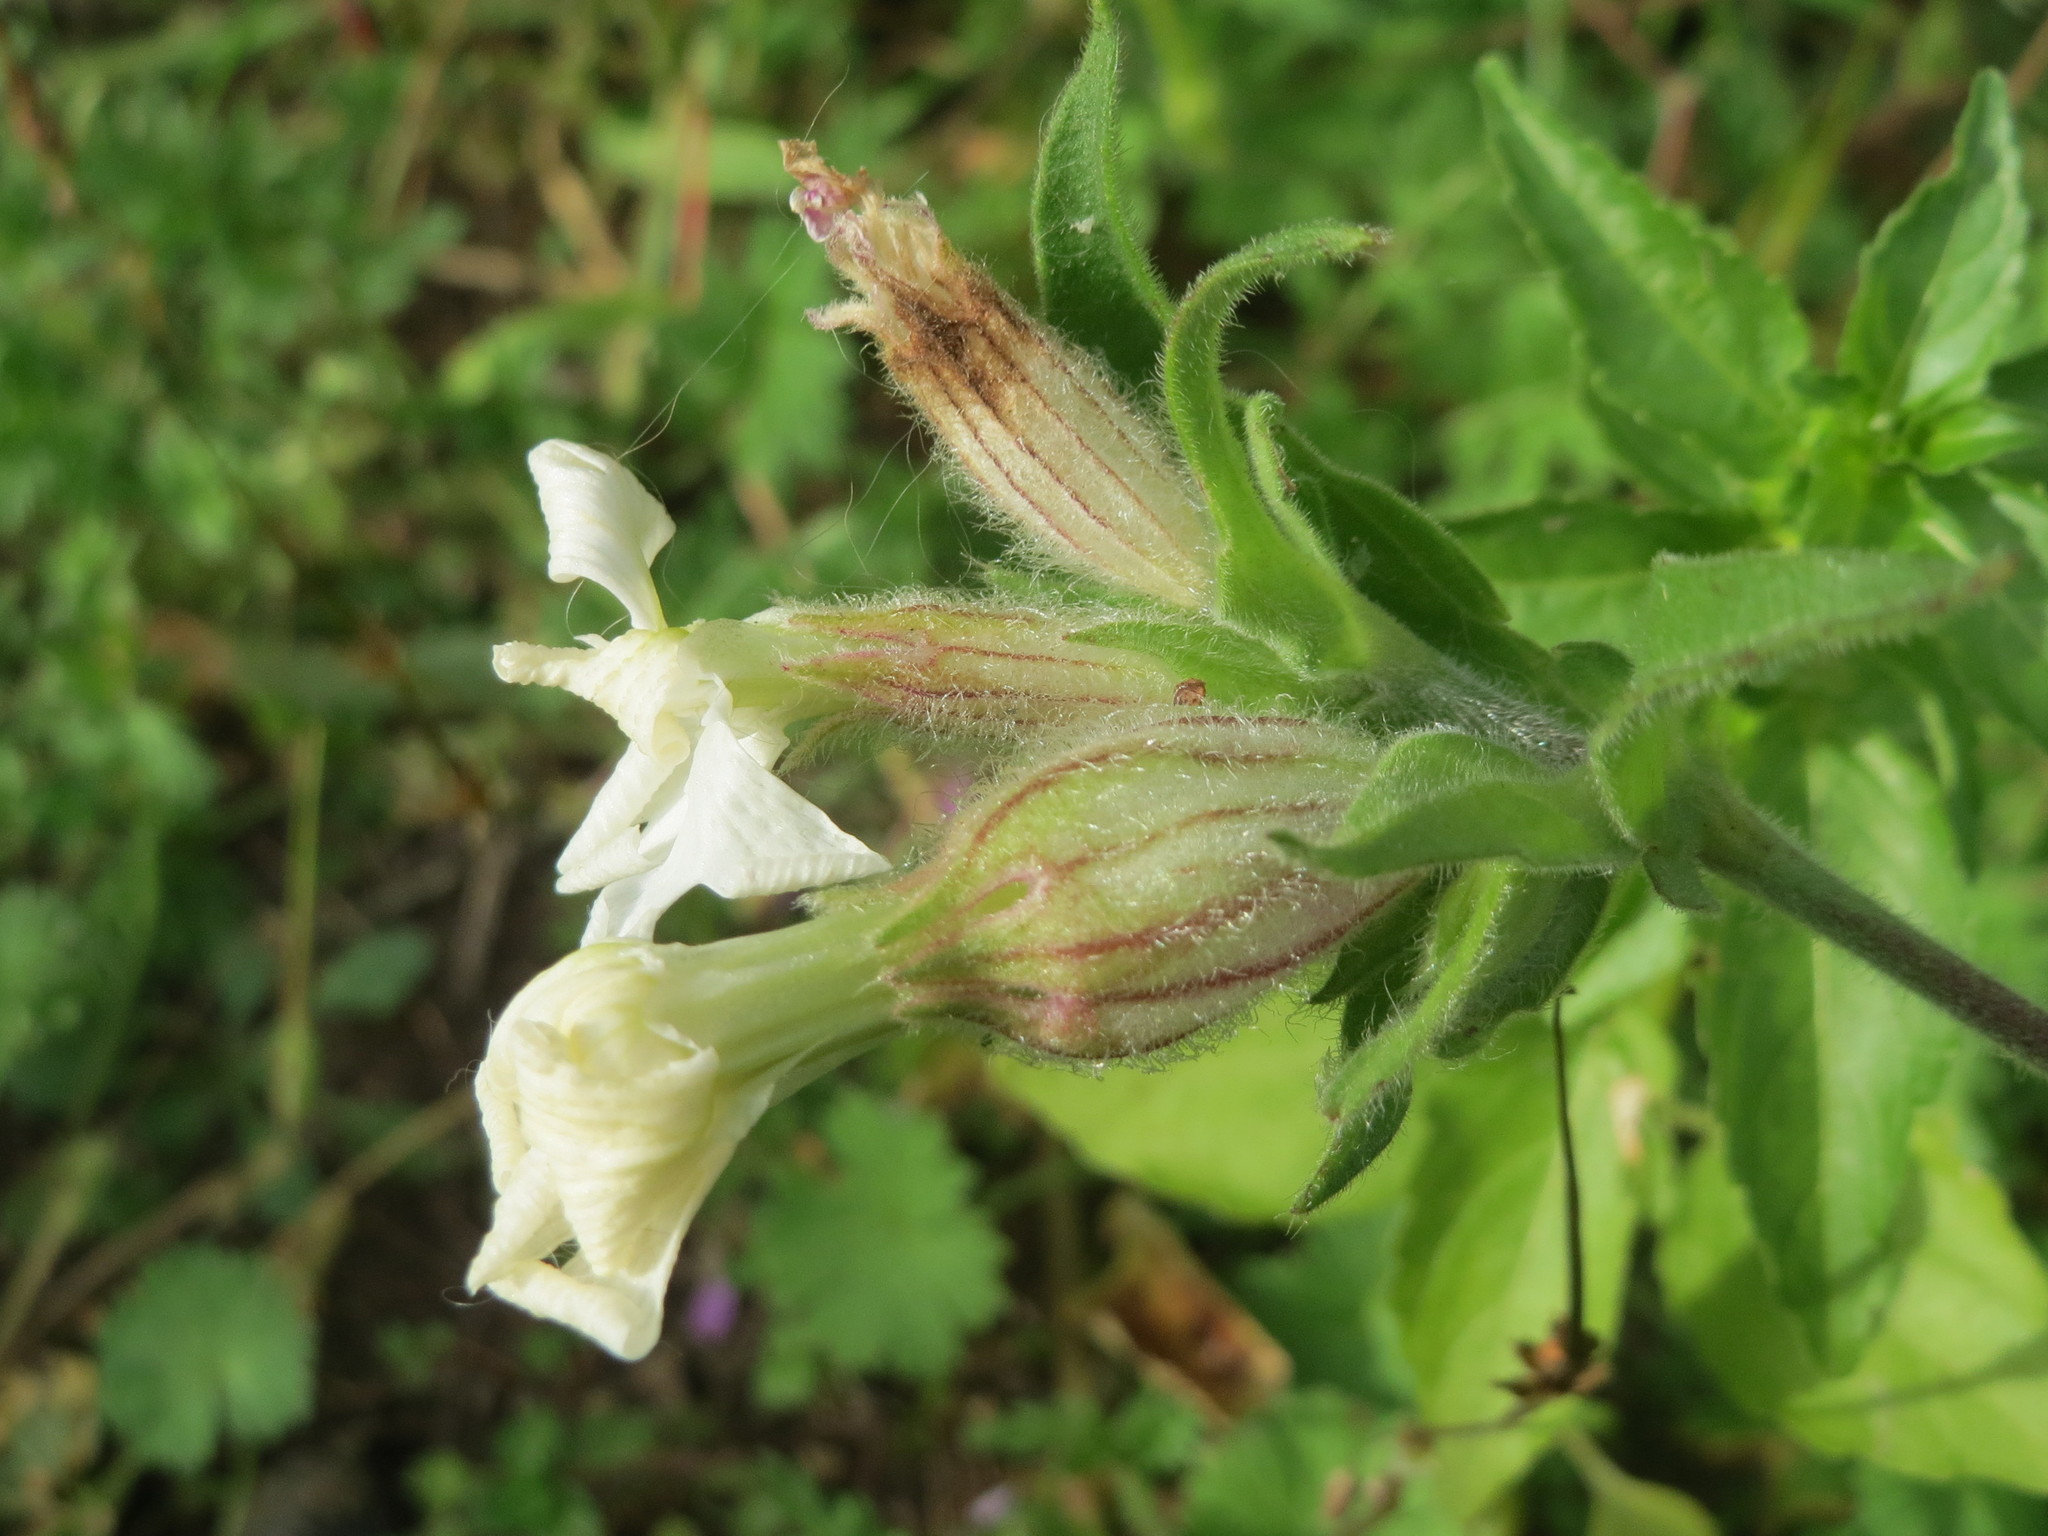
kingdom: Plantae
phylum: Tracheophyta
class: Magnoliopsida
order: Caryophyllales
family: Caryophyllaceae
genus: Silene
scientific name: Silene latifolia
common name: White campion
